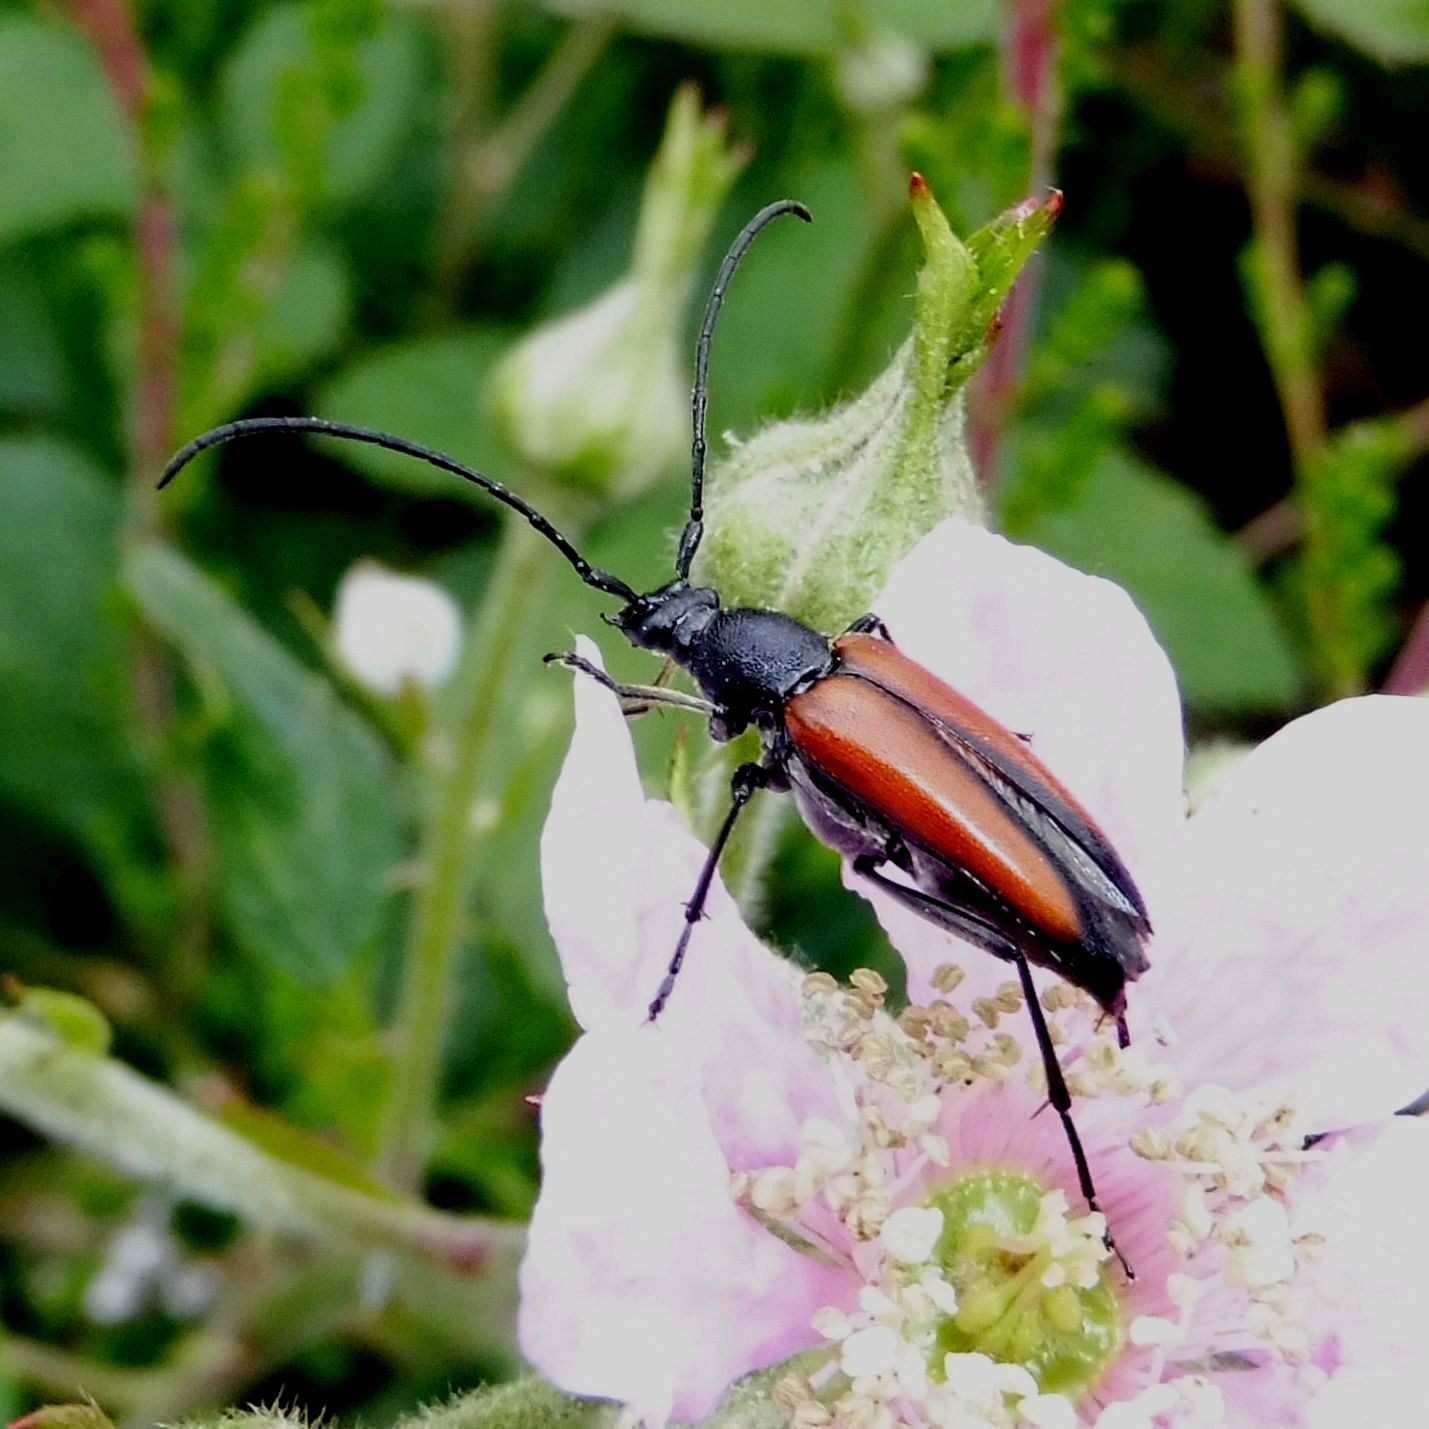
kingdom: Animalia
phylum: Arthropoda
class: Insecta
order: Coleoptera
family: Cerambycidae
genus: Stenurella
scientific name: Stenurella melanura
